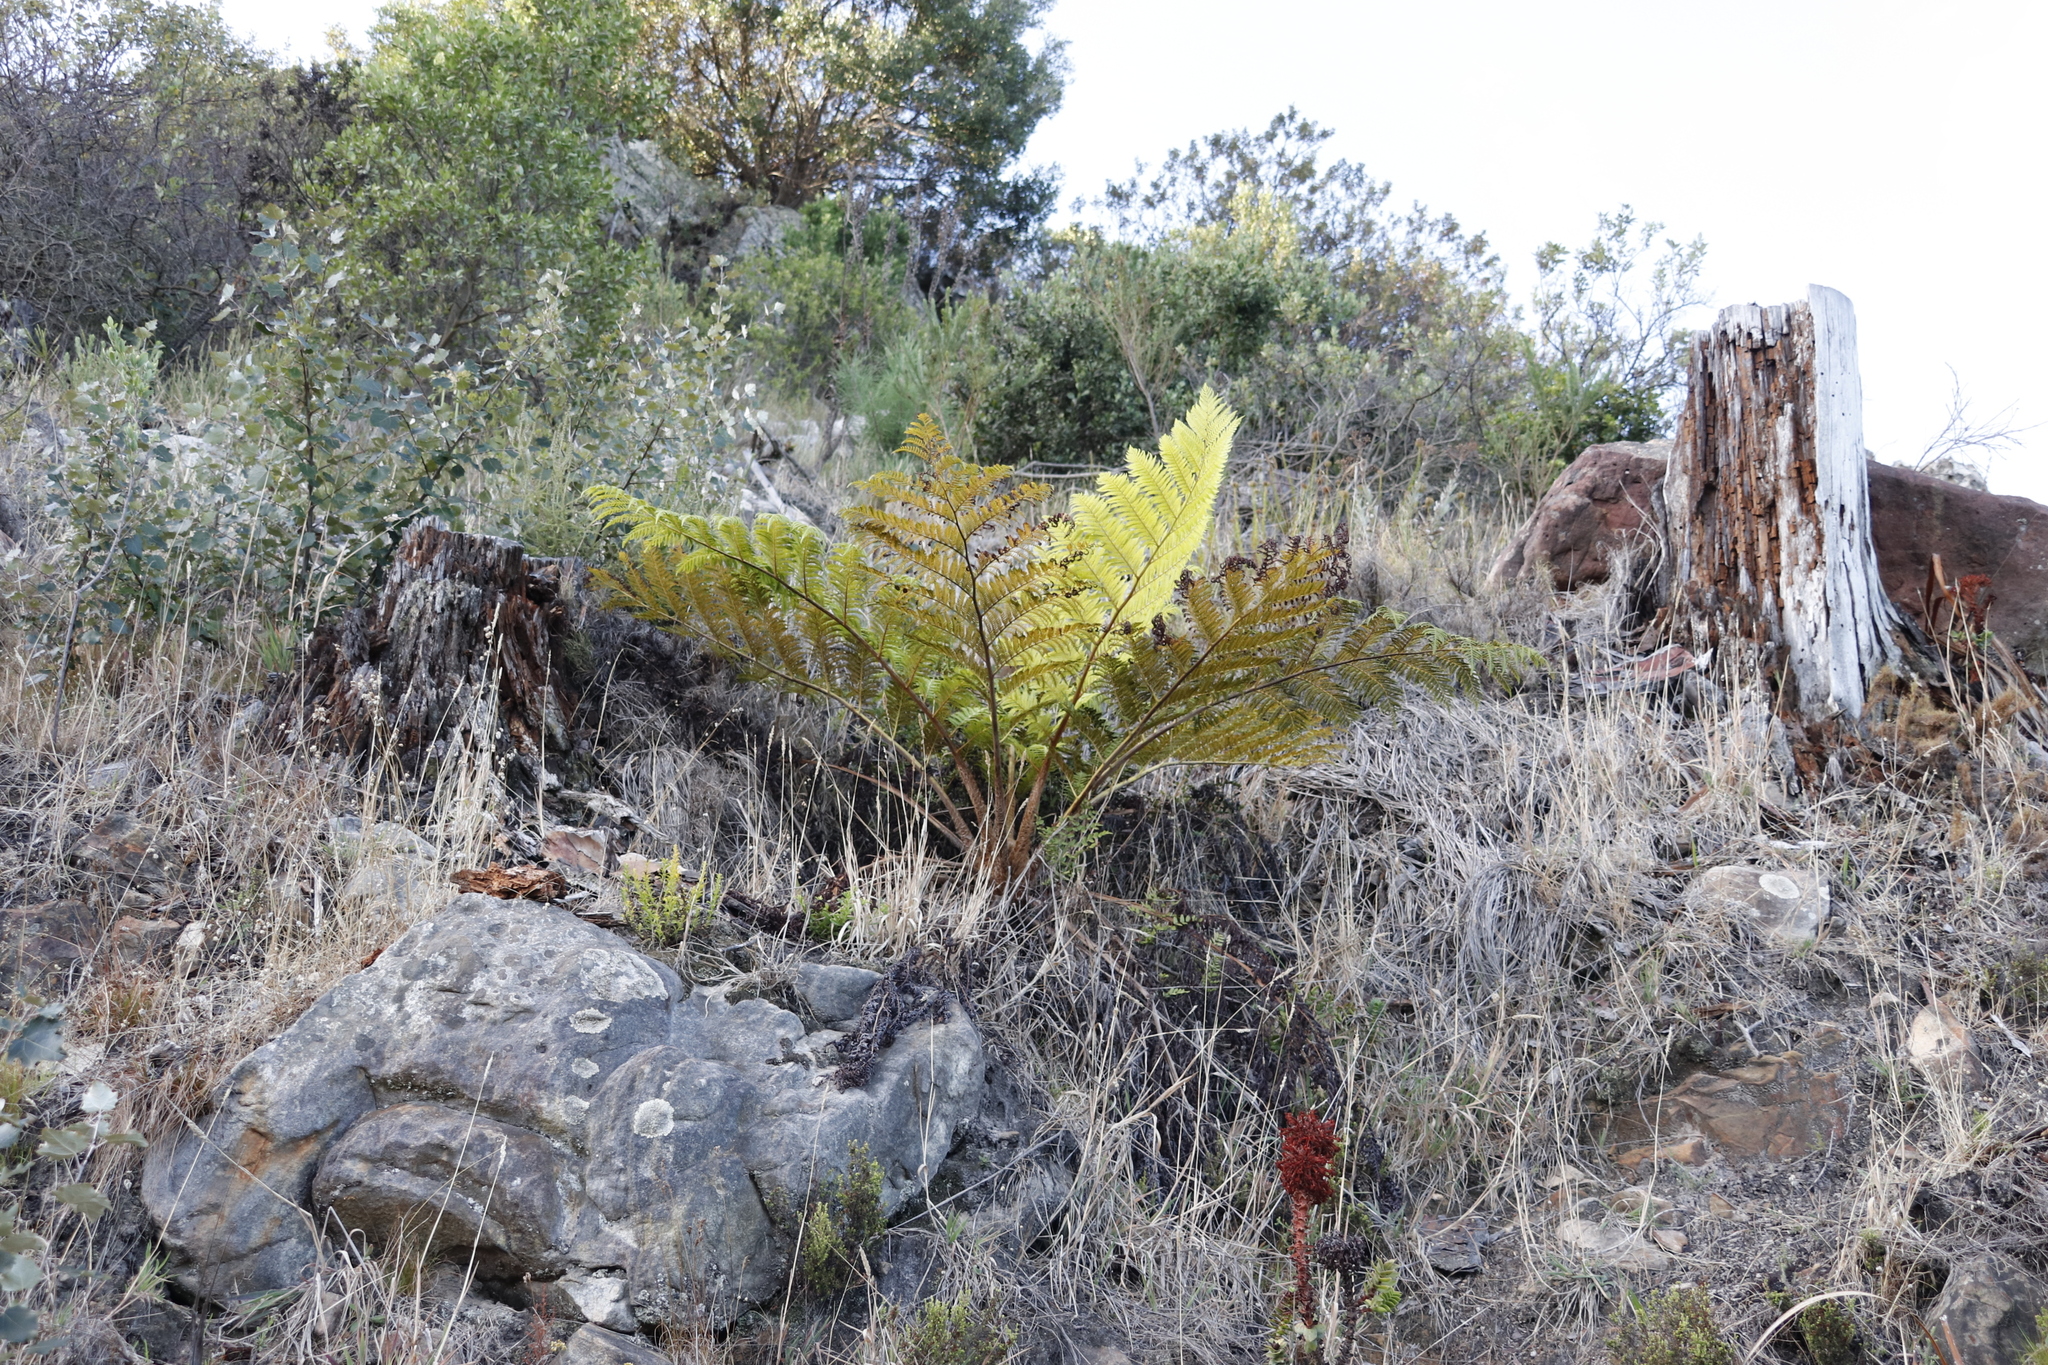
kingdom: Plantae
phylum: Tracheophyta
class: Polypodiopsida
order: Cyatheales
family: Cyatheaceae
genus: Sphaeropteris
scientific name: Sphaeropteris cooperi
